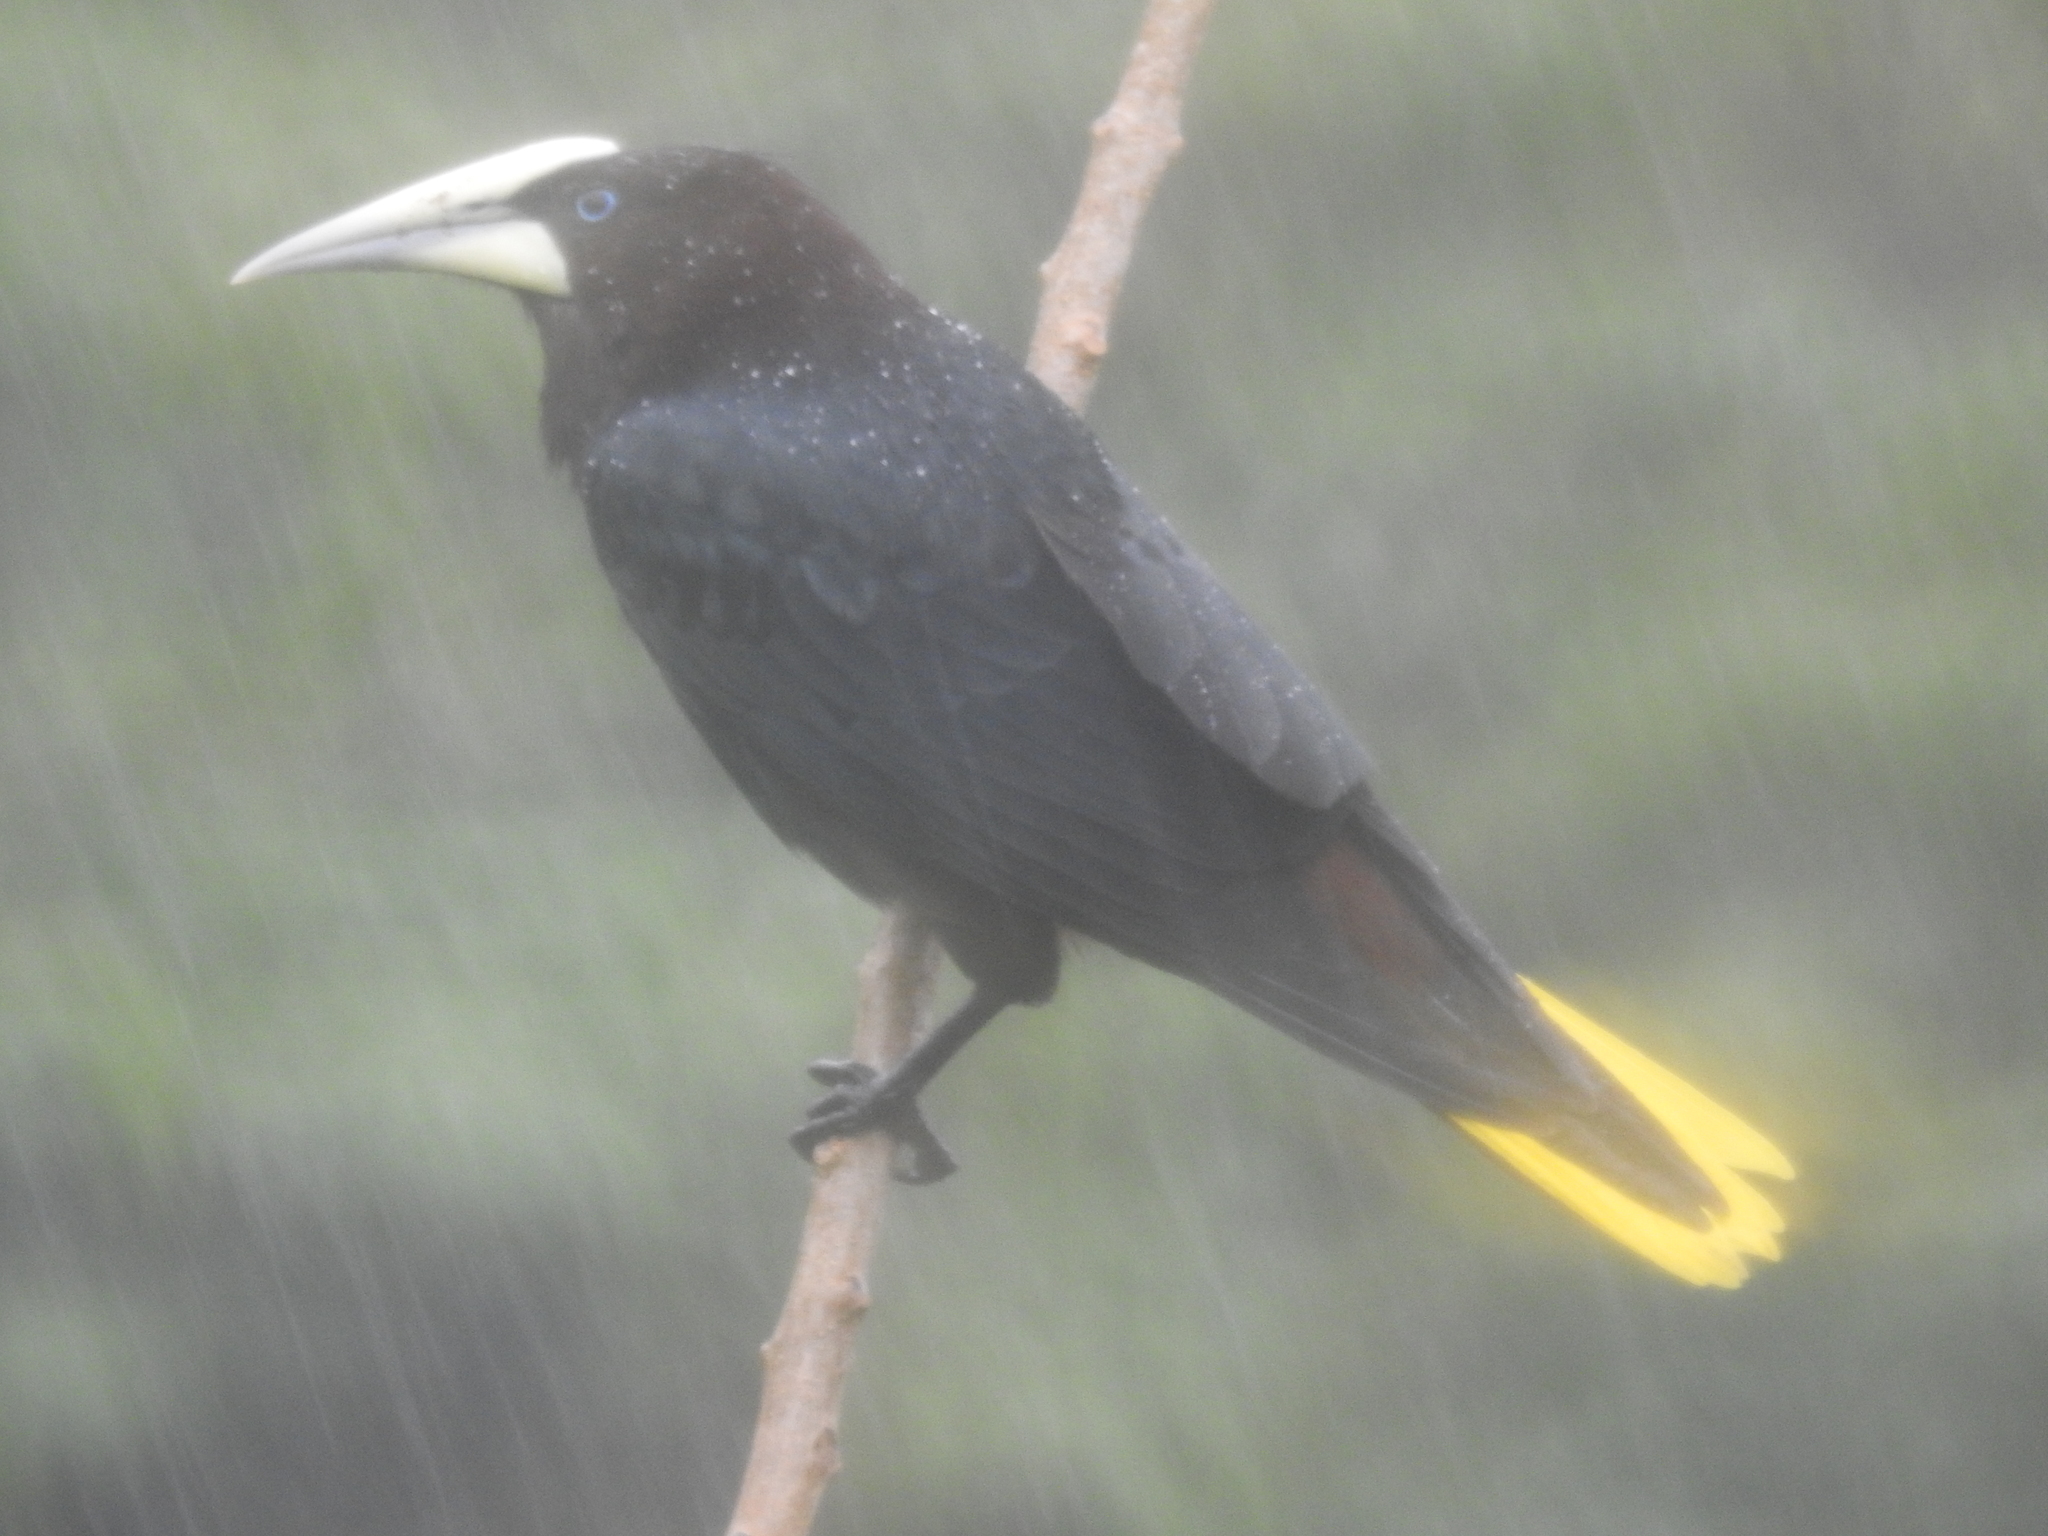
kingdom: Animalia
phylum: Chordata
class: Aves
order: Passeriformes
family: Icteridae
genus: Psarocolius
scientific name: Psarocolius wagleri
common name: Chestnut-headed oropendola
